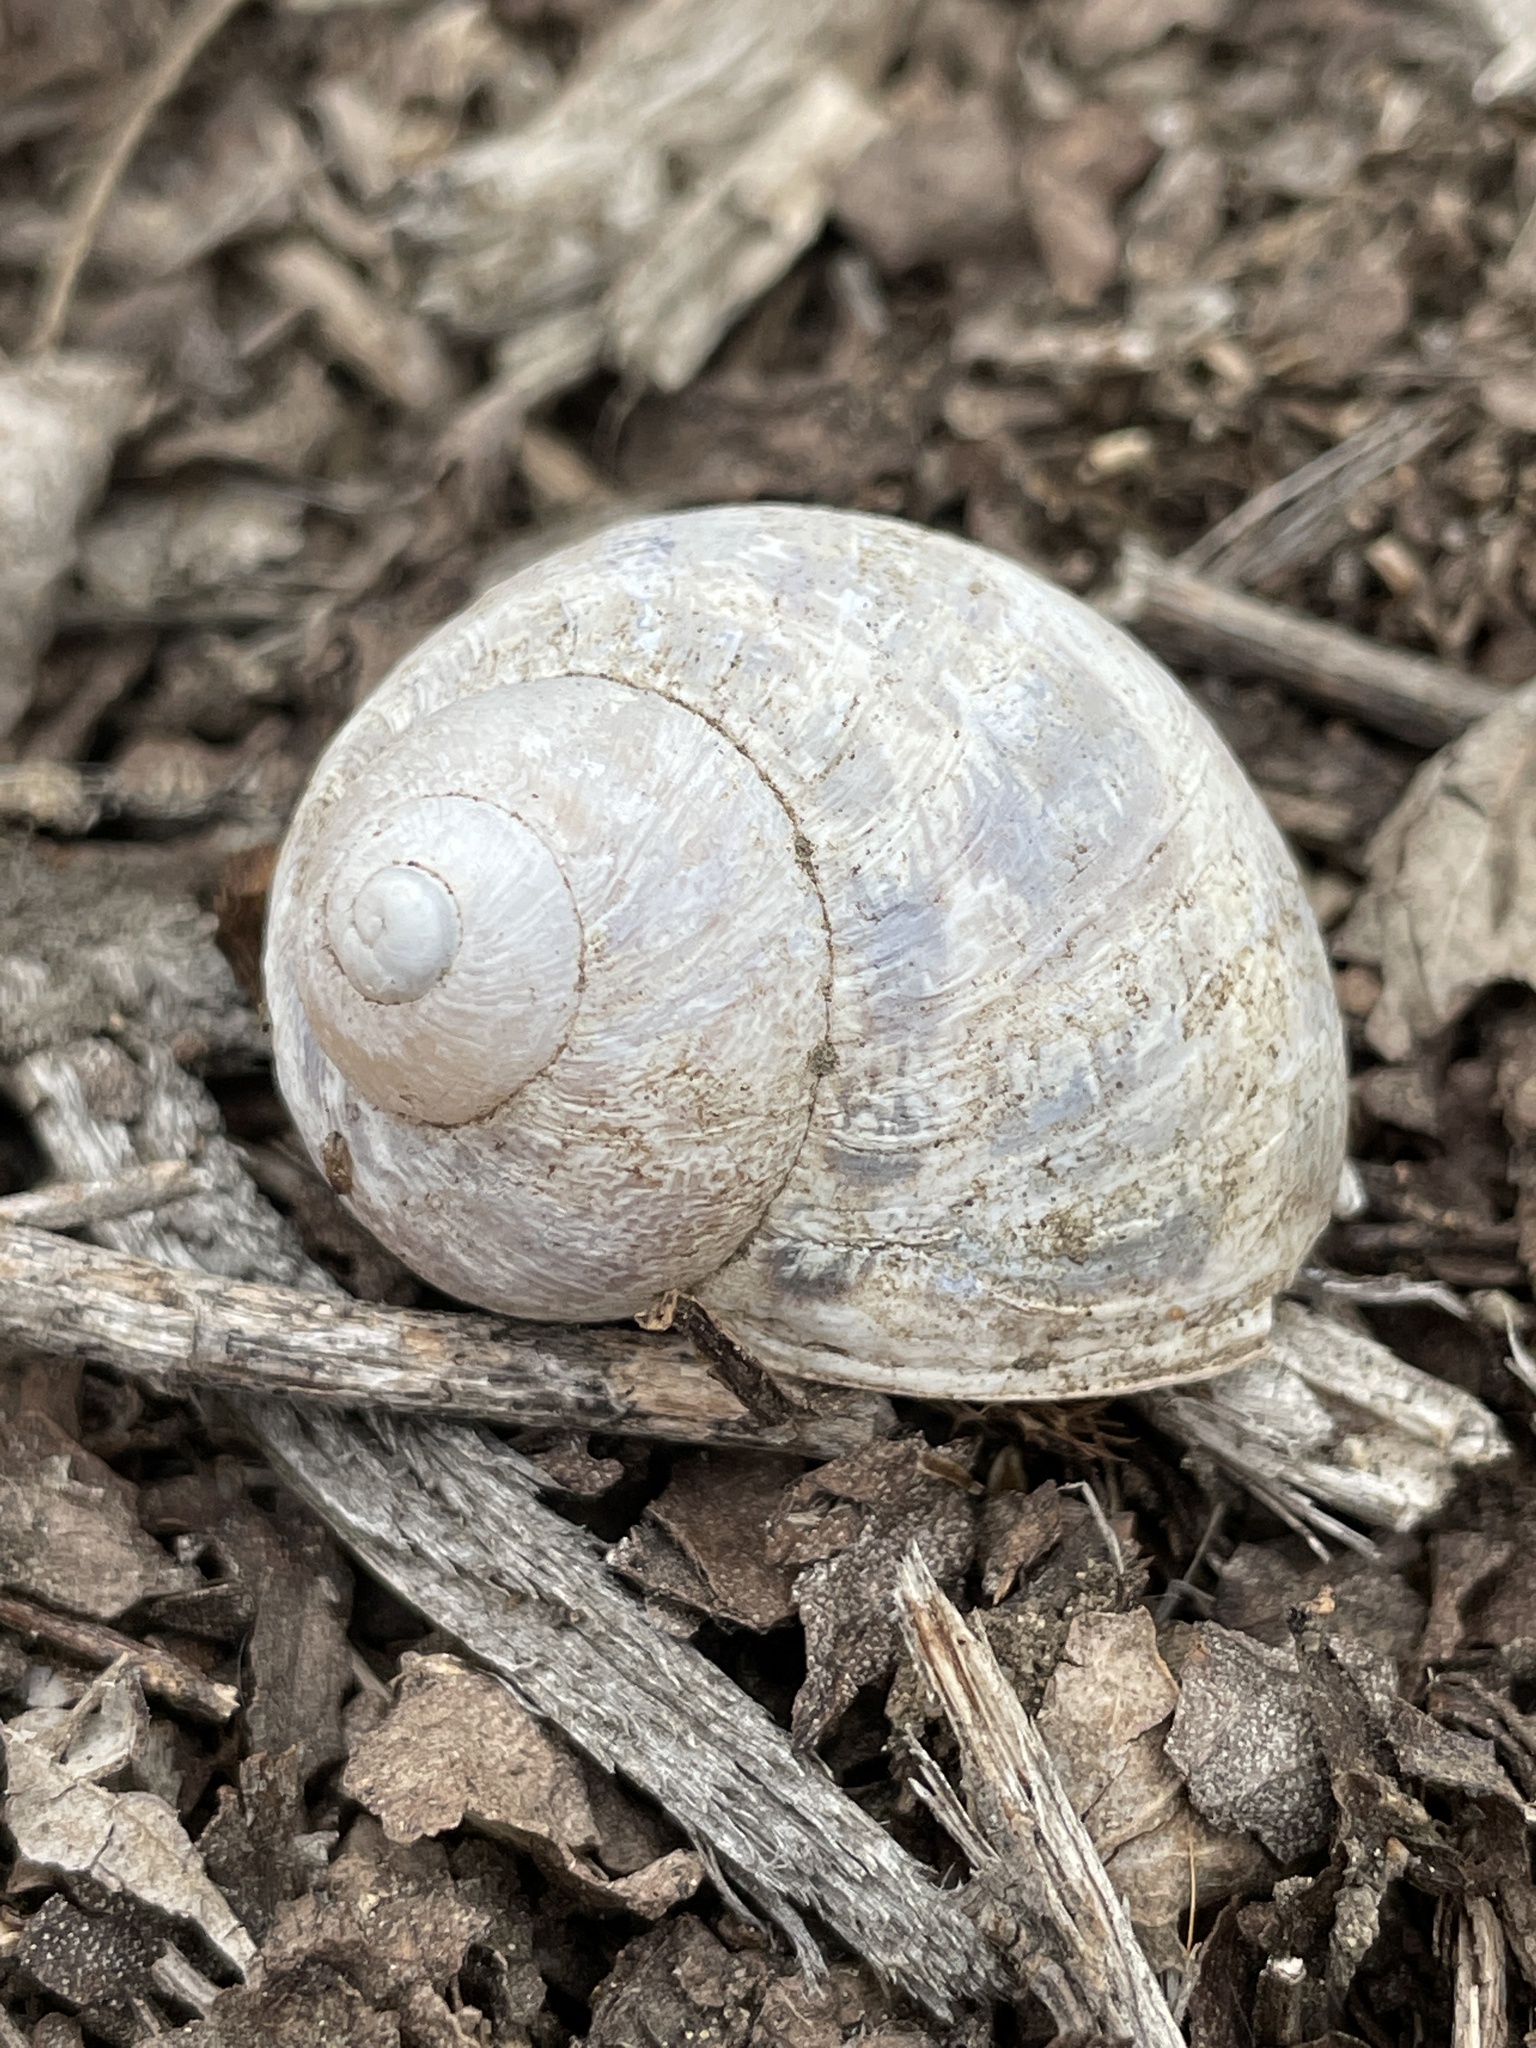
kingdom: Animalia
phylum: Mollusca
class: Gastropoda
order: Stylommatophora
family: Helicidae
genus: Cornu
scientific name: Cornu aspersum
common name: Brown garden snail
